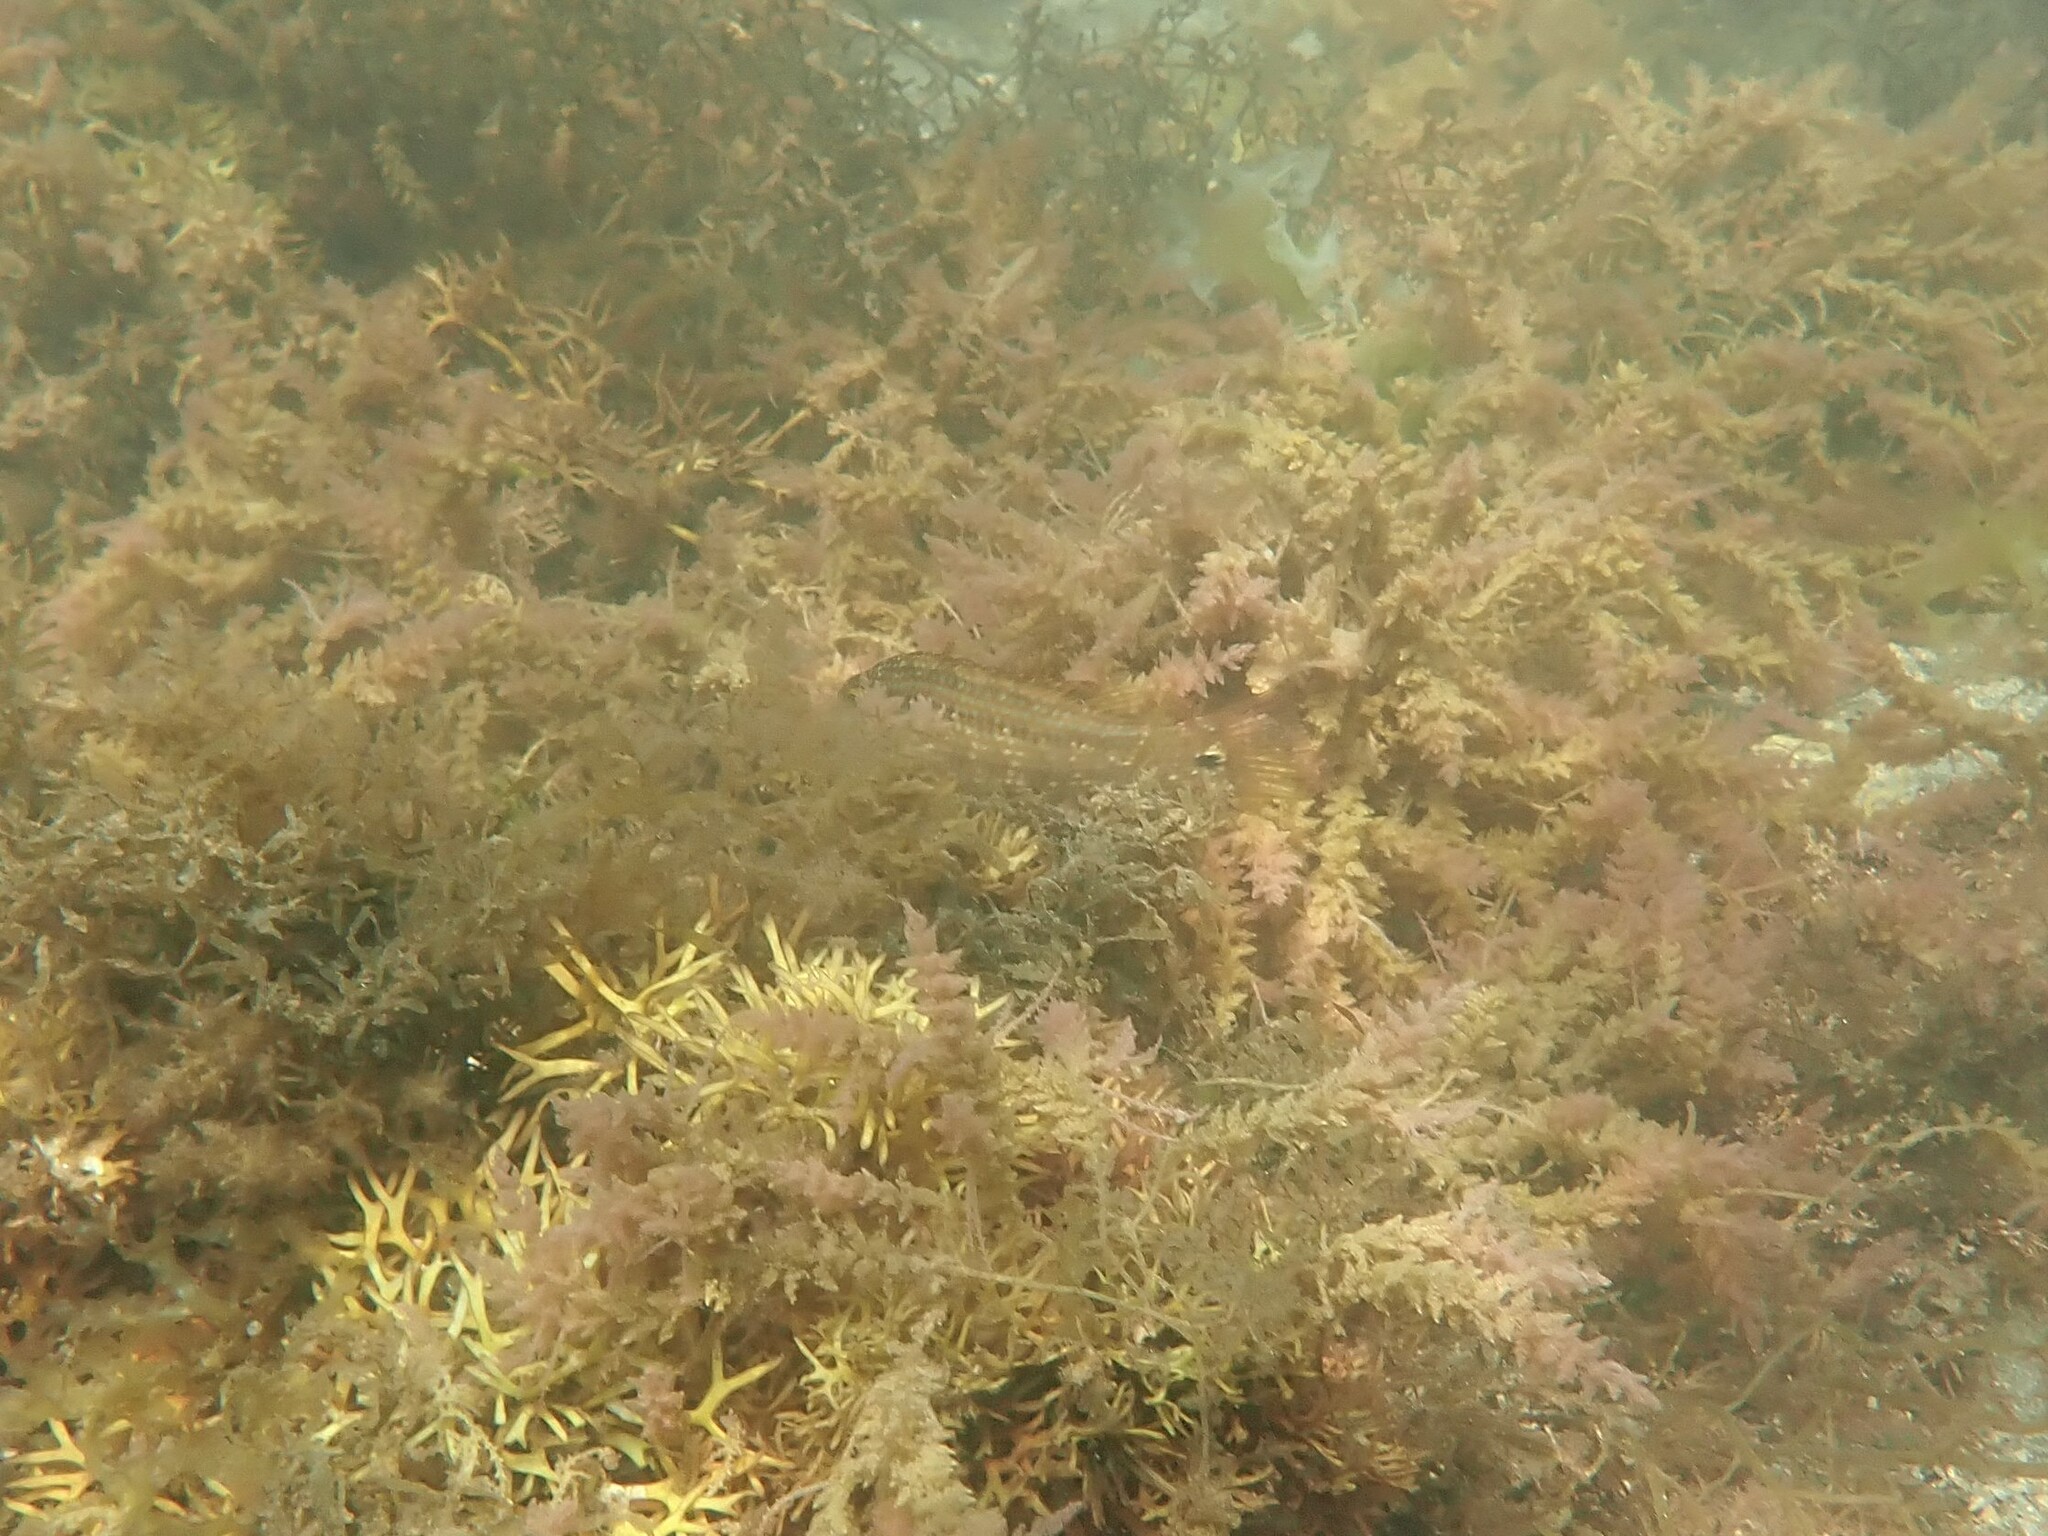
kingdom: Animalia
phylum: Chordata
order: Perciformes
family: Labridae
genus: Symphodus
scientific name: Symphodus melops
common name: Corkwing
